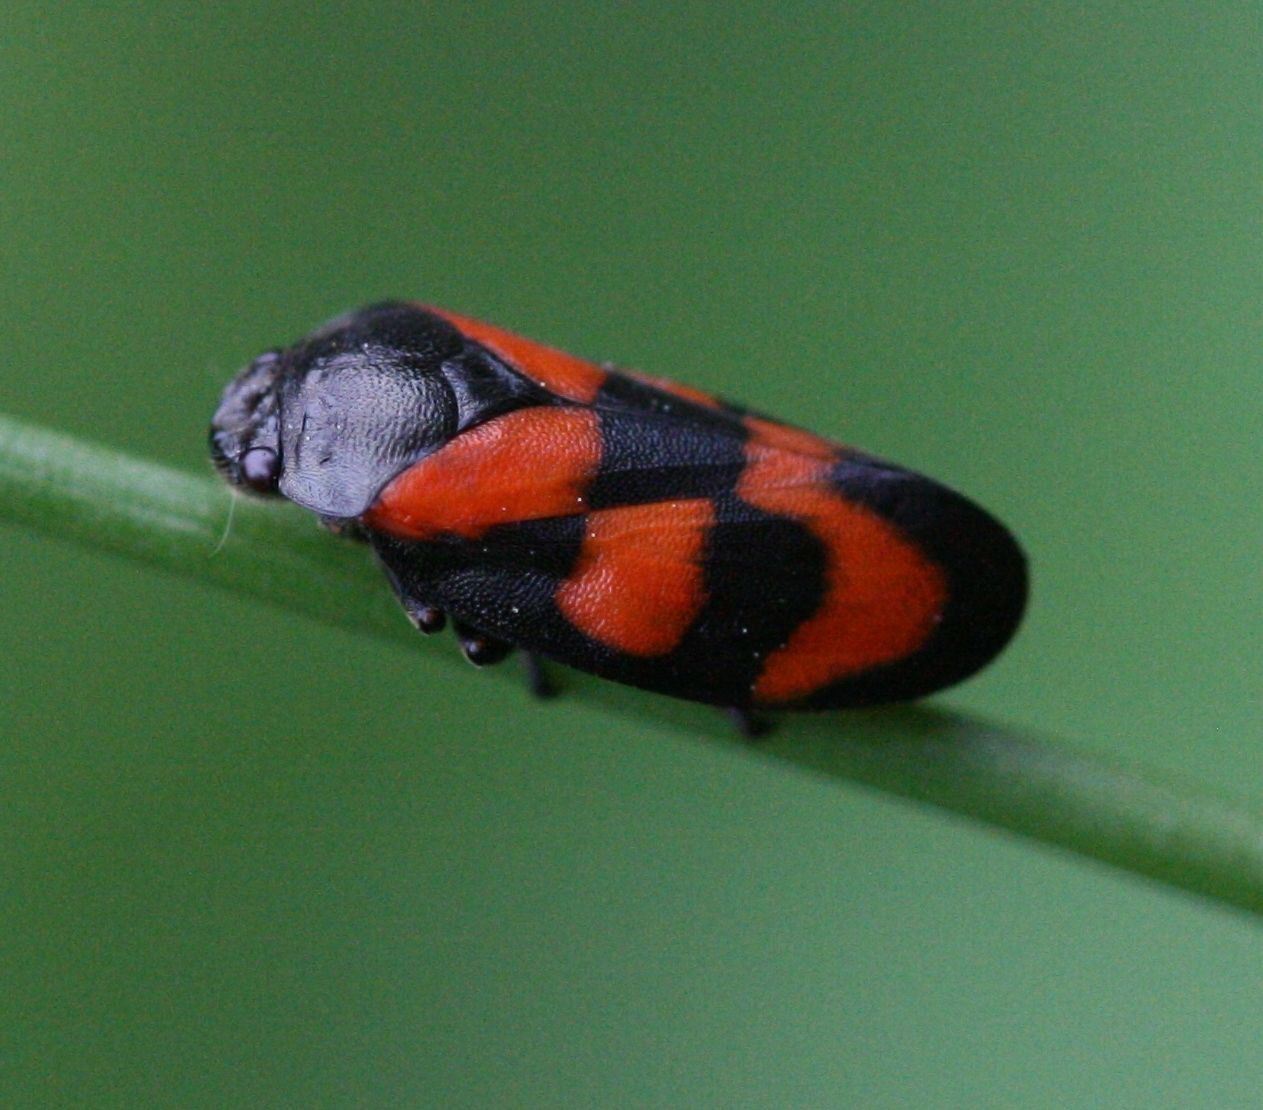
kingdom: Animalia
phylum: Arthropoda
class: Insecta
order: Hemiptera
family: Cercopidae
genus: Cercopis
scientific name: Cercopis vulnerata
